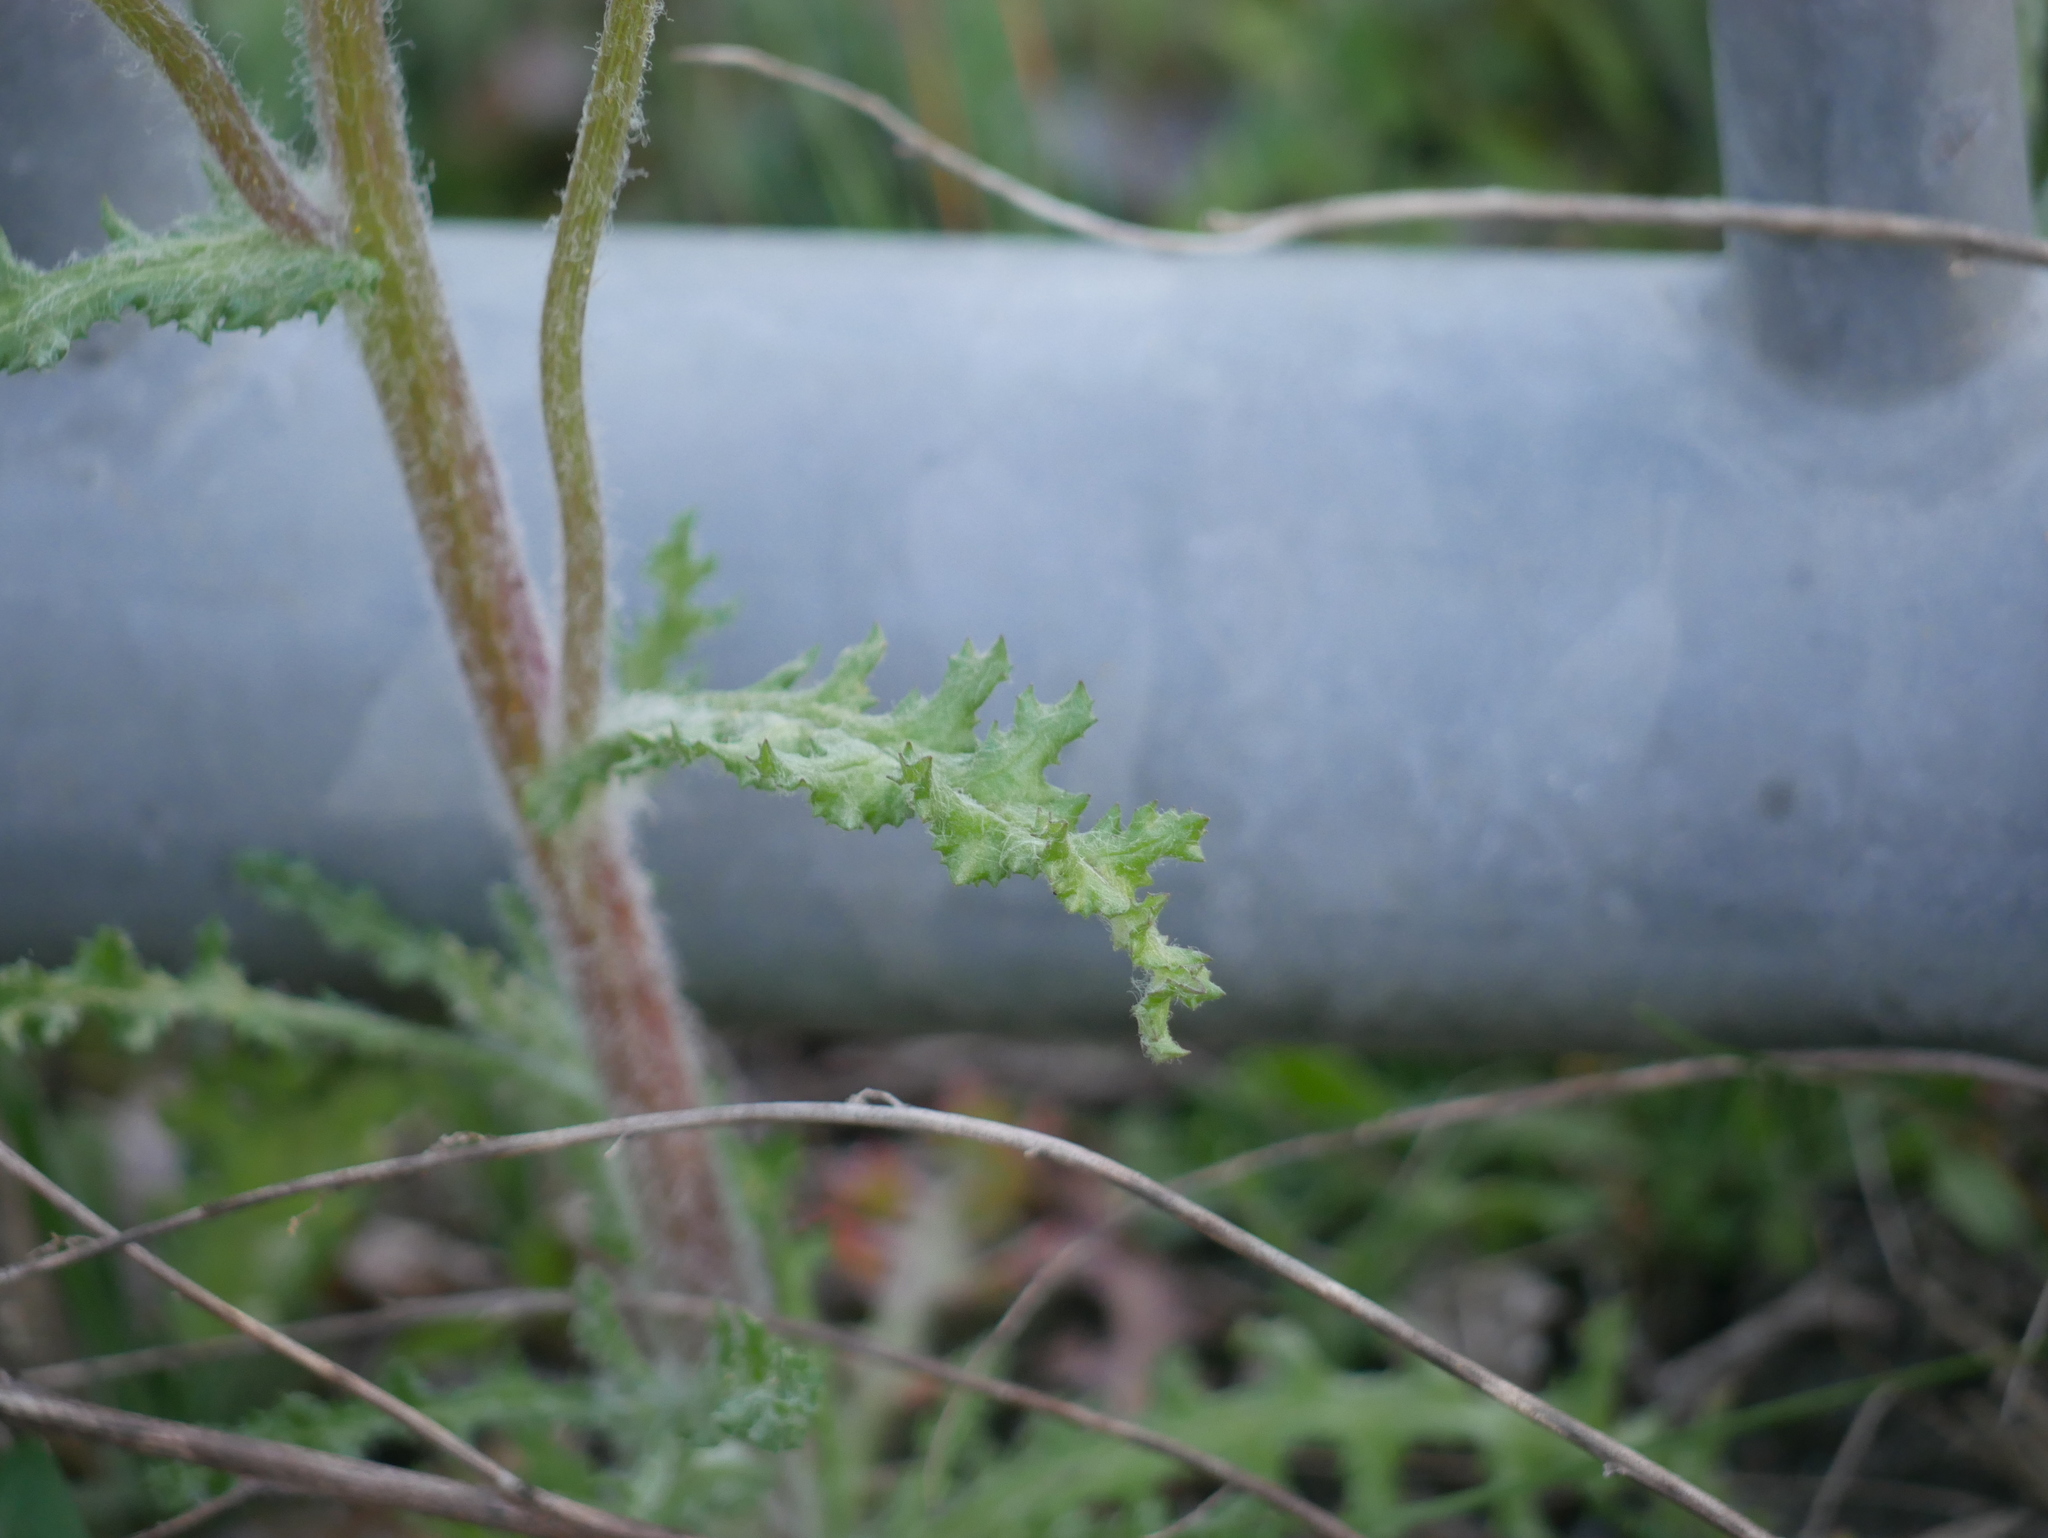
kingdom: Plantae
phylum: Tracheophyta
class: Magnoliopsida
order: Asterales
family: Asteraceae
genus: Senecio
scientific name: Senecio vernalis
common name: Eastern groundsel
